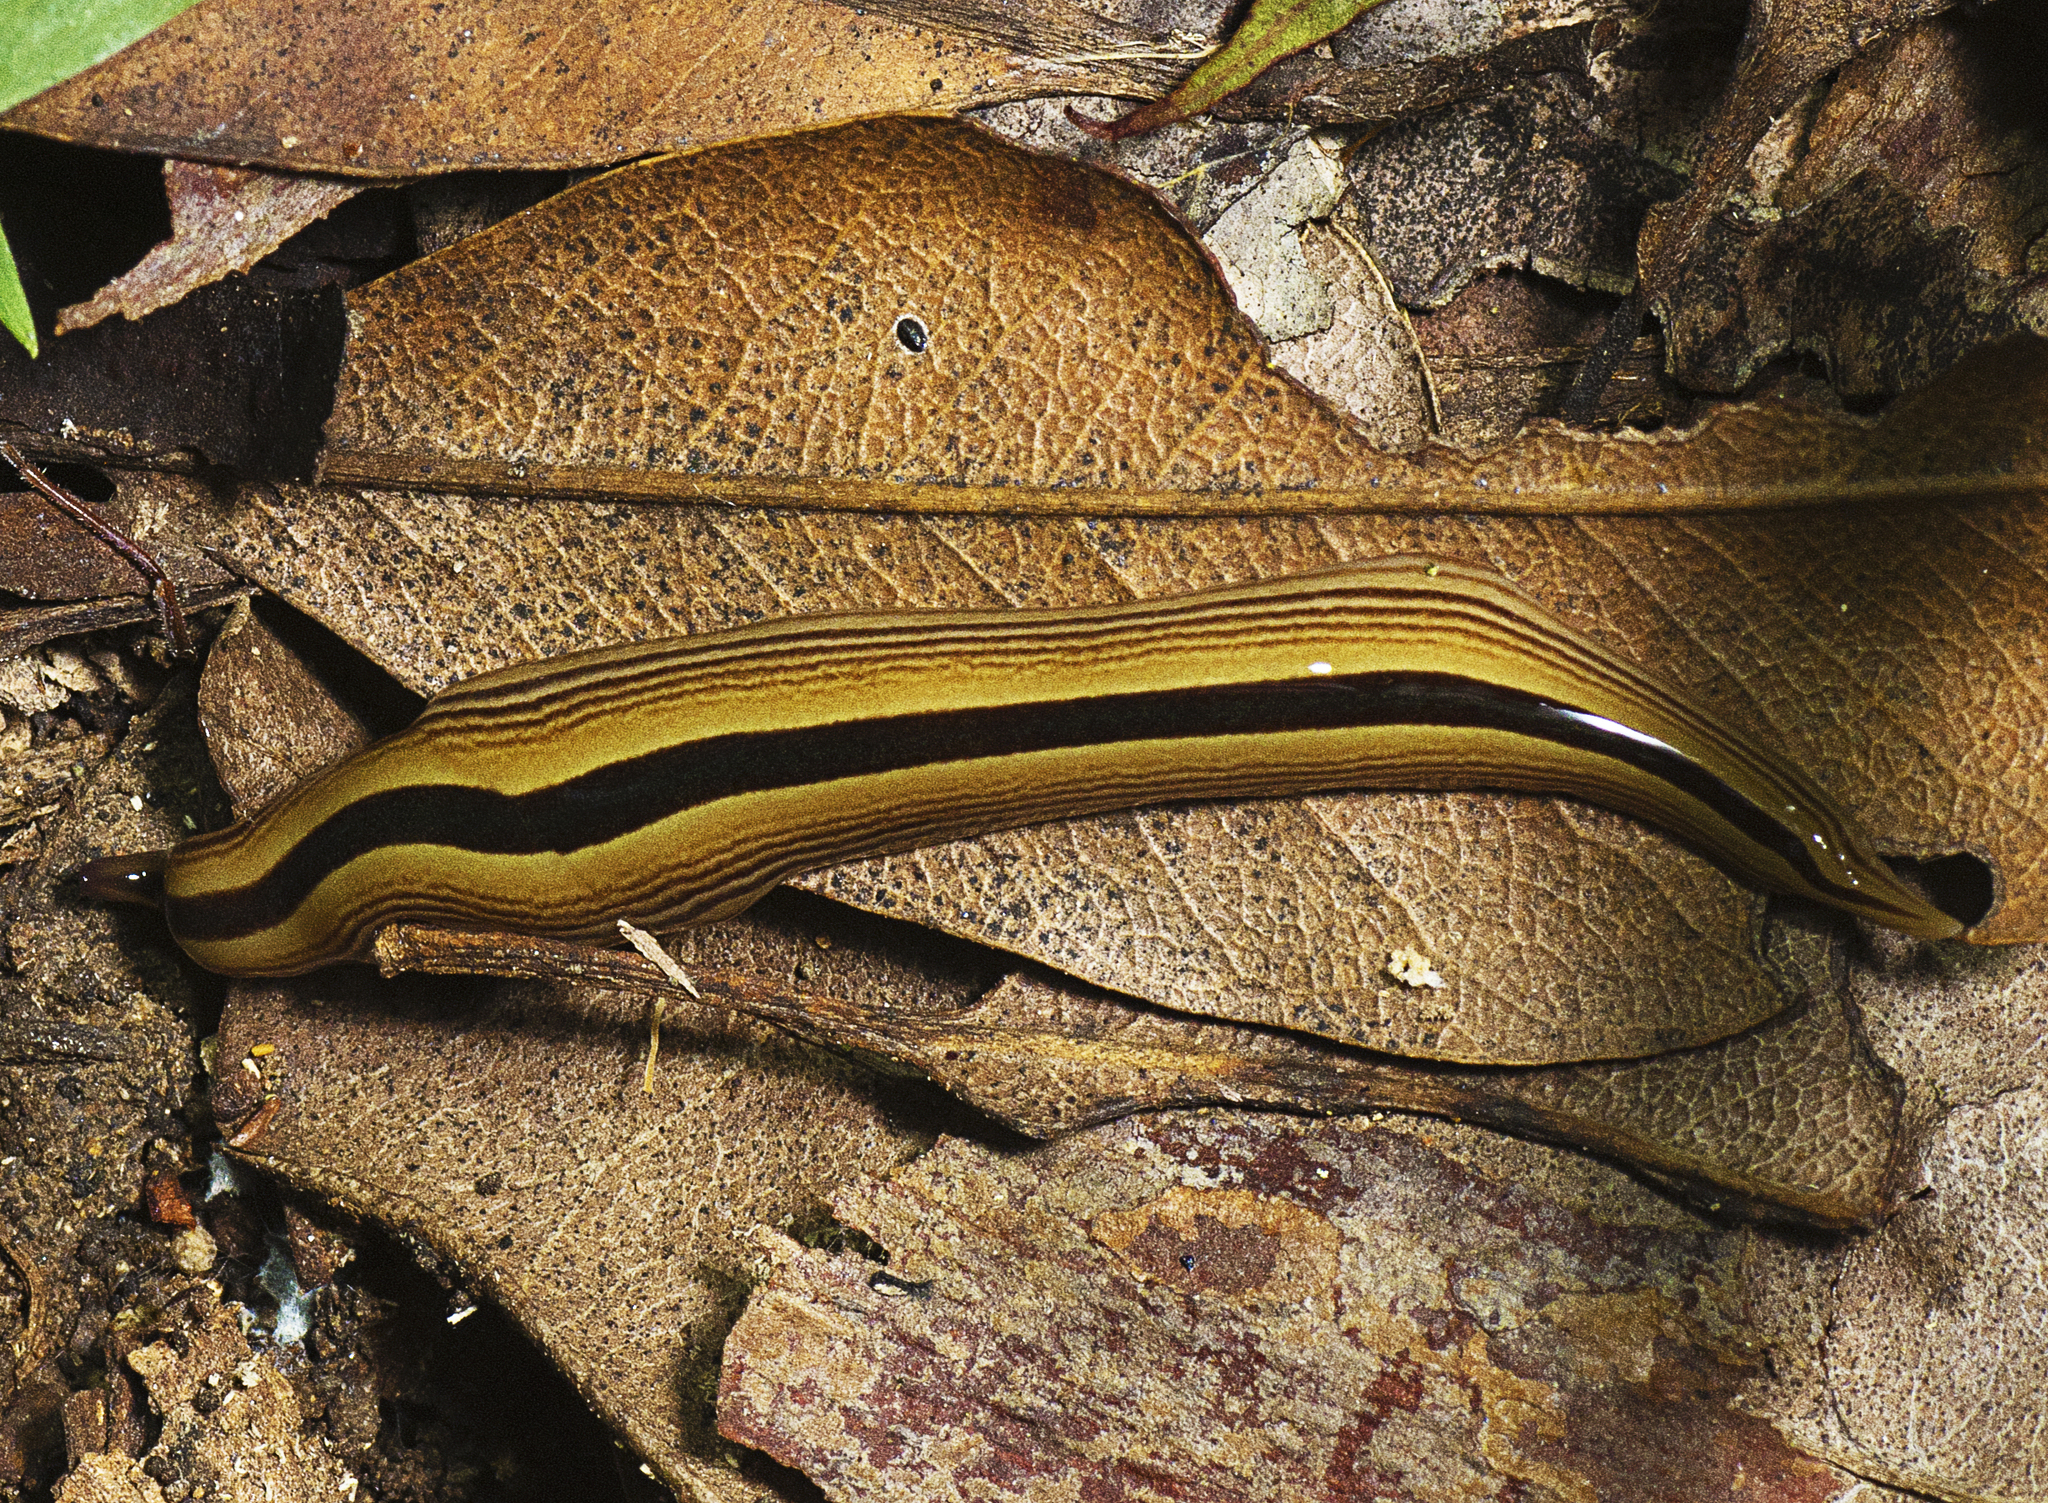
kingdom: Animalia
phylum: Platyhelminthes
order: Tricladida
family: Geoplanidae
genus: Australopacifica
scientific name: Australopacifica regina
